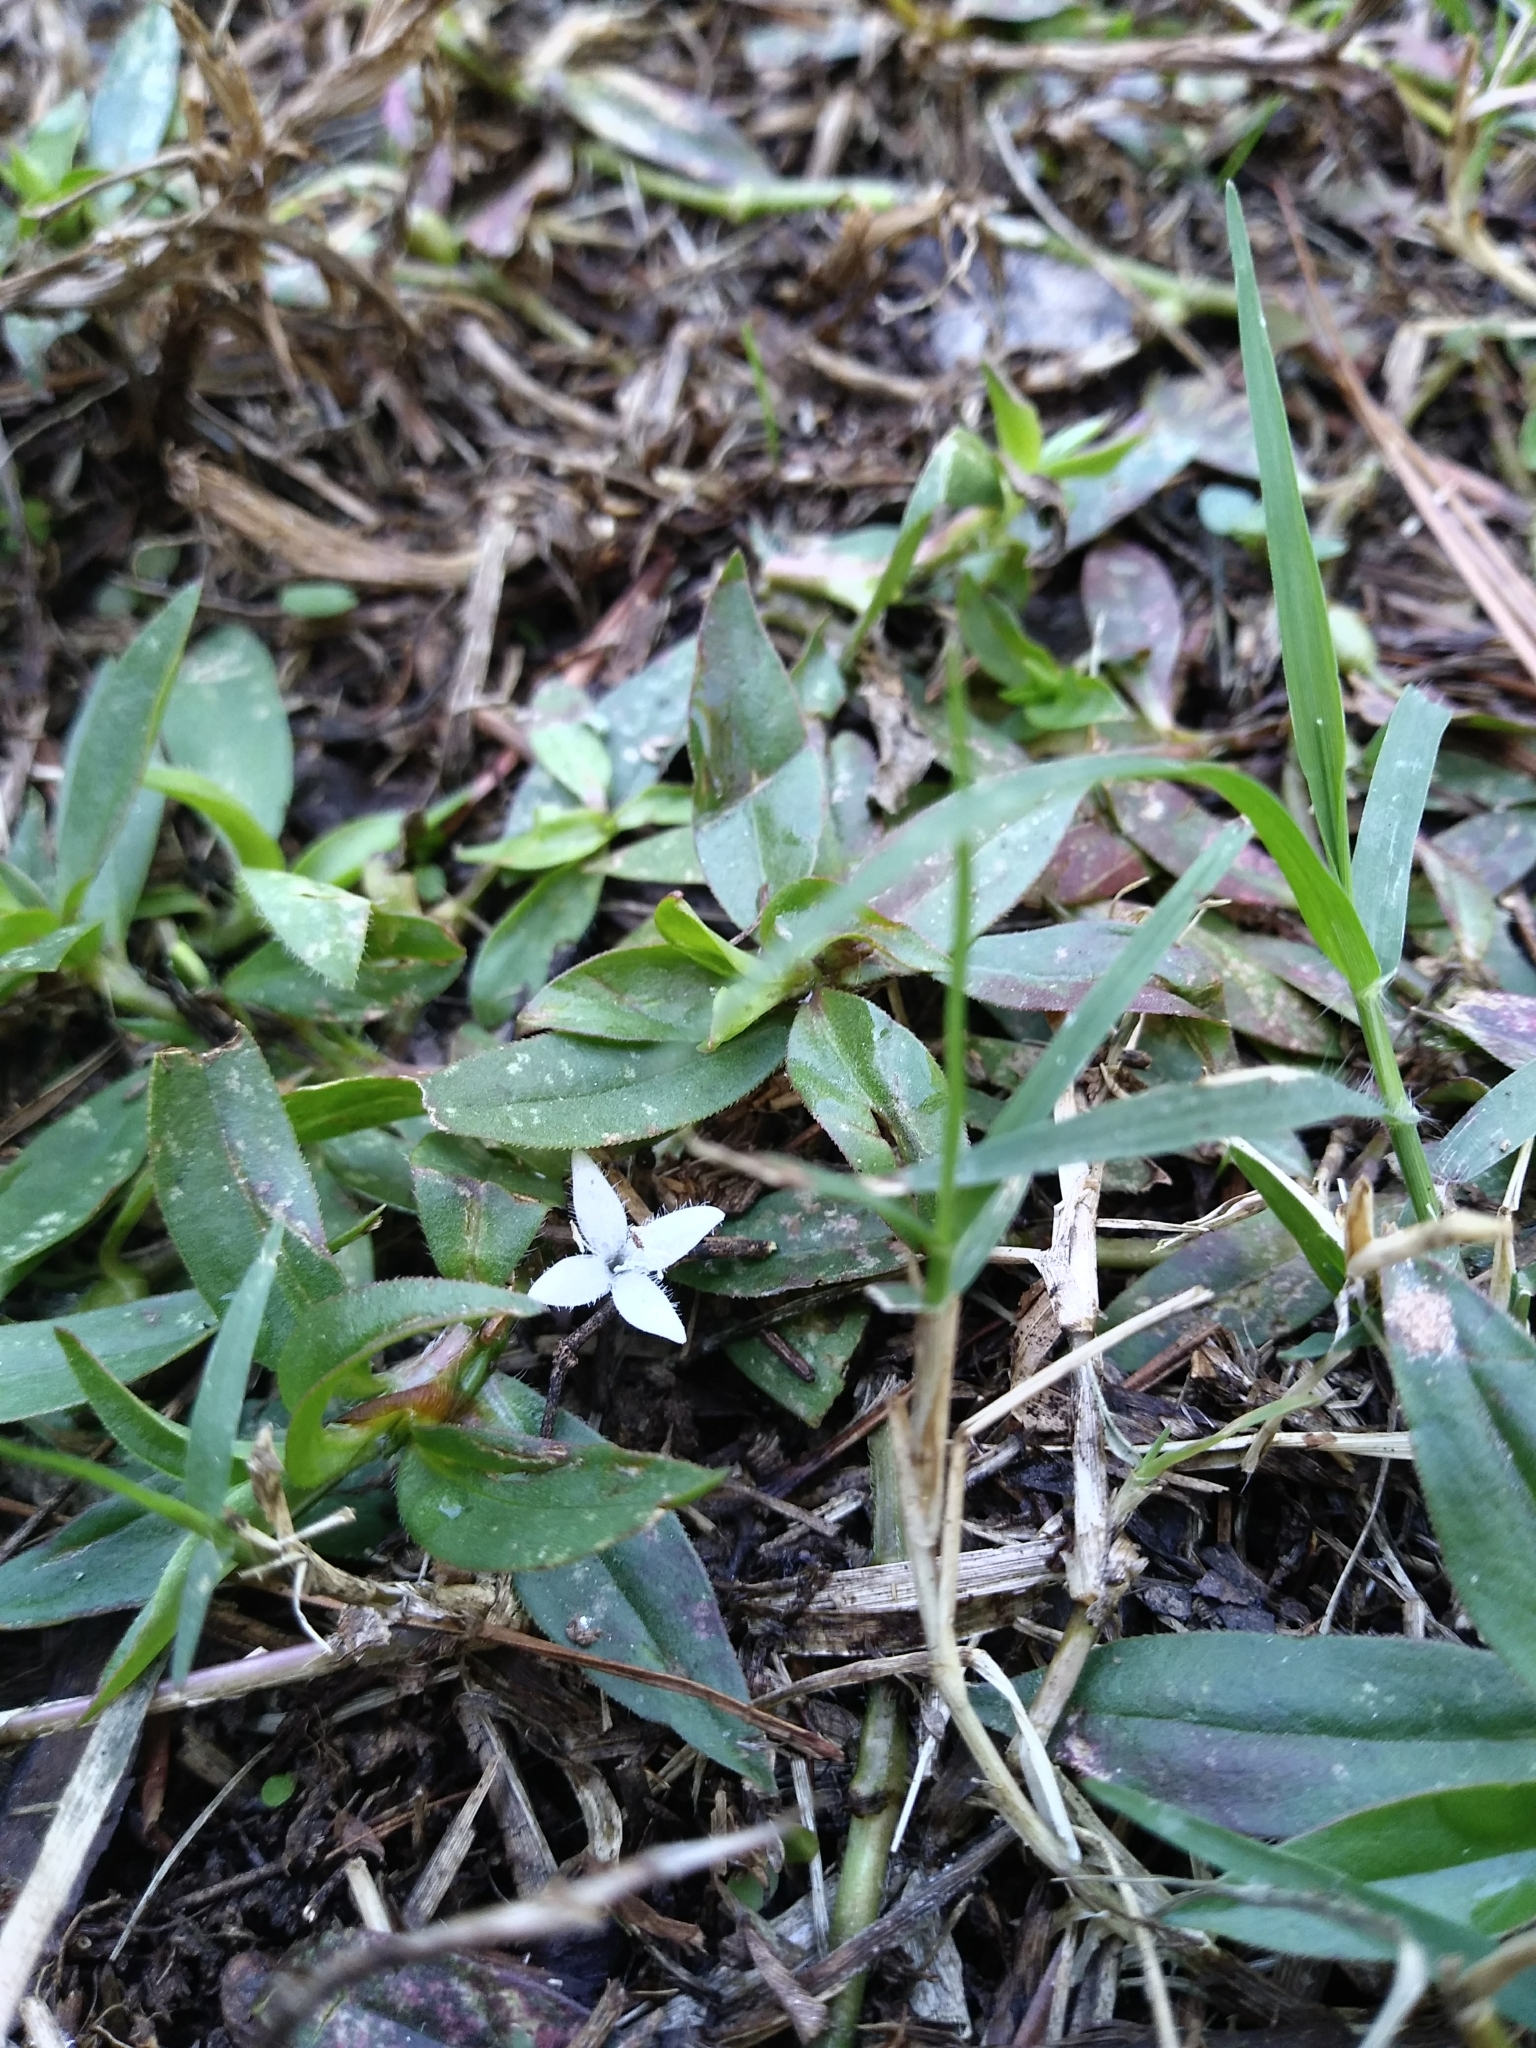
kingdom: Plantae
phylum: Tracheophyta
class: Magnoliopsida
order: Gentianales
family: Rubiaceae
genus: Diodia
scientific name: Diodia virginiana
